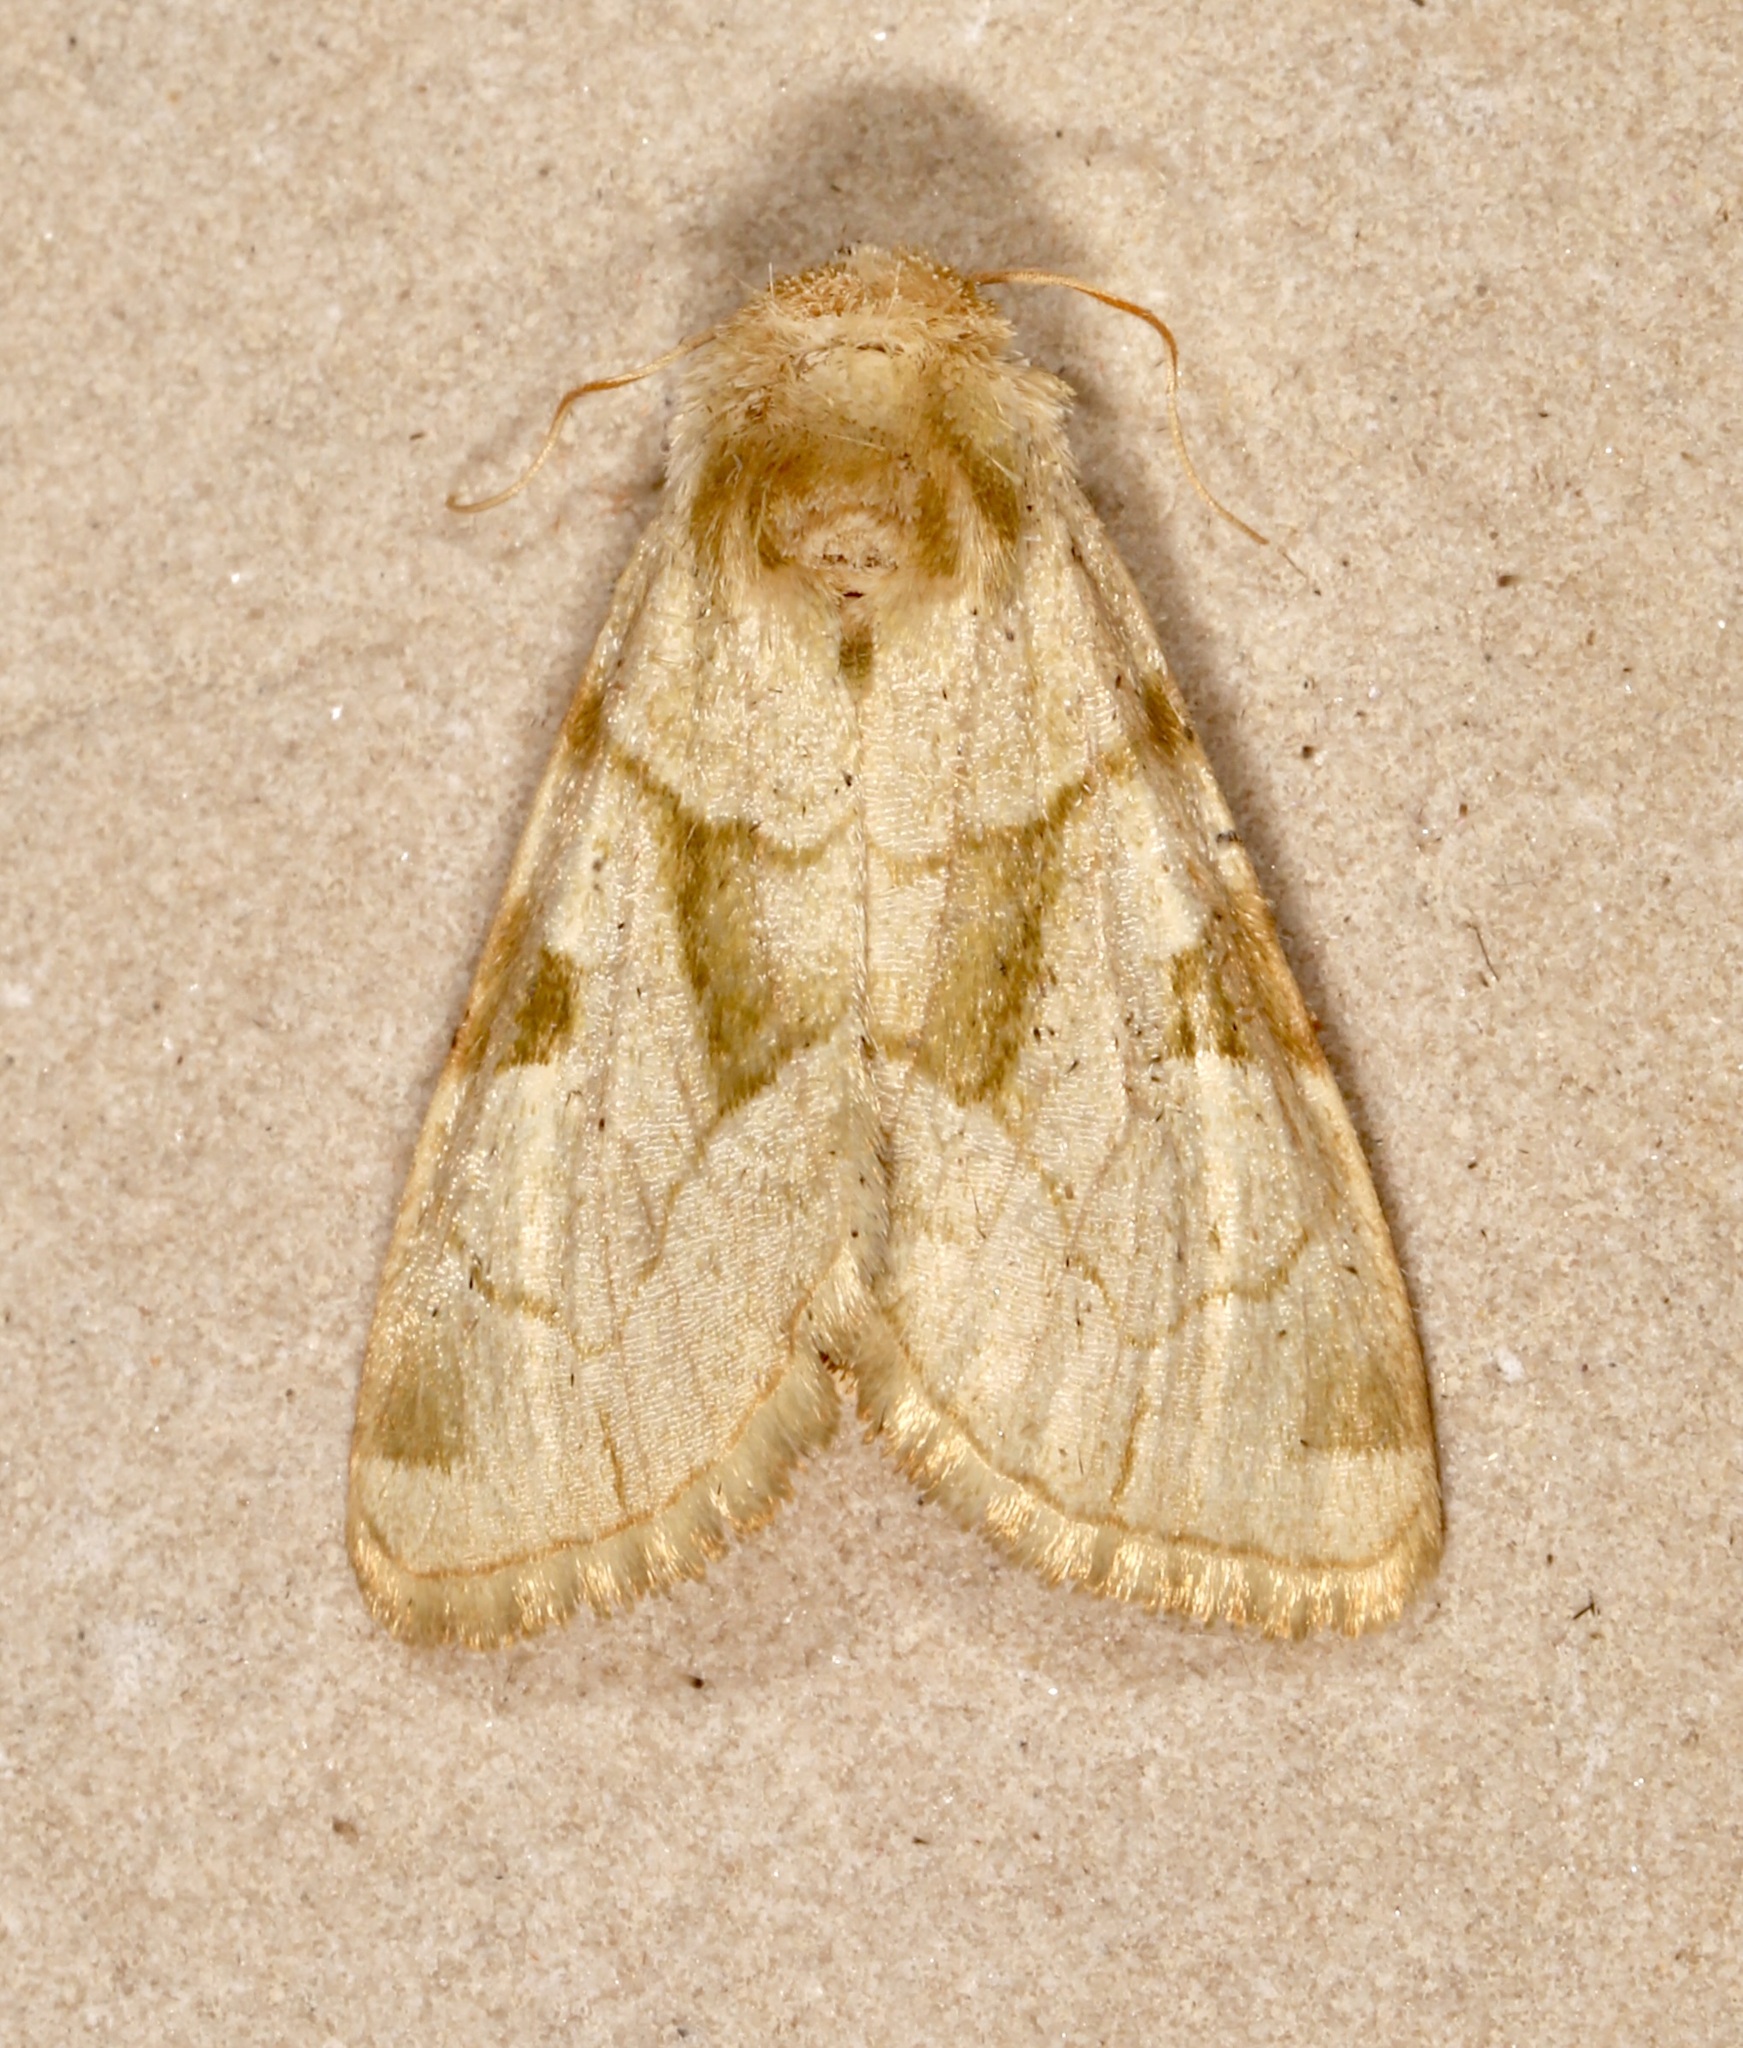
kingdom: Animalia
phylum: Arthropoda
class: Insecta
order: Lepidoptera
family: Noctuidae
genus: Oslaria
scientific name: Oslaria viridifera
